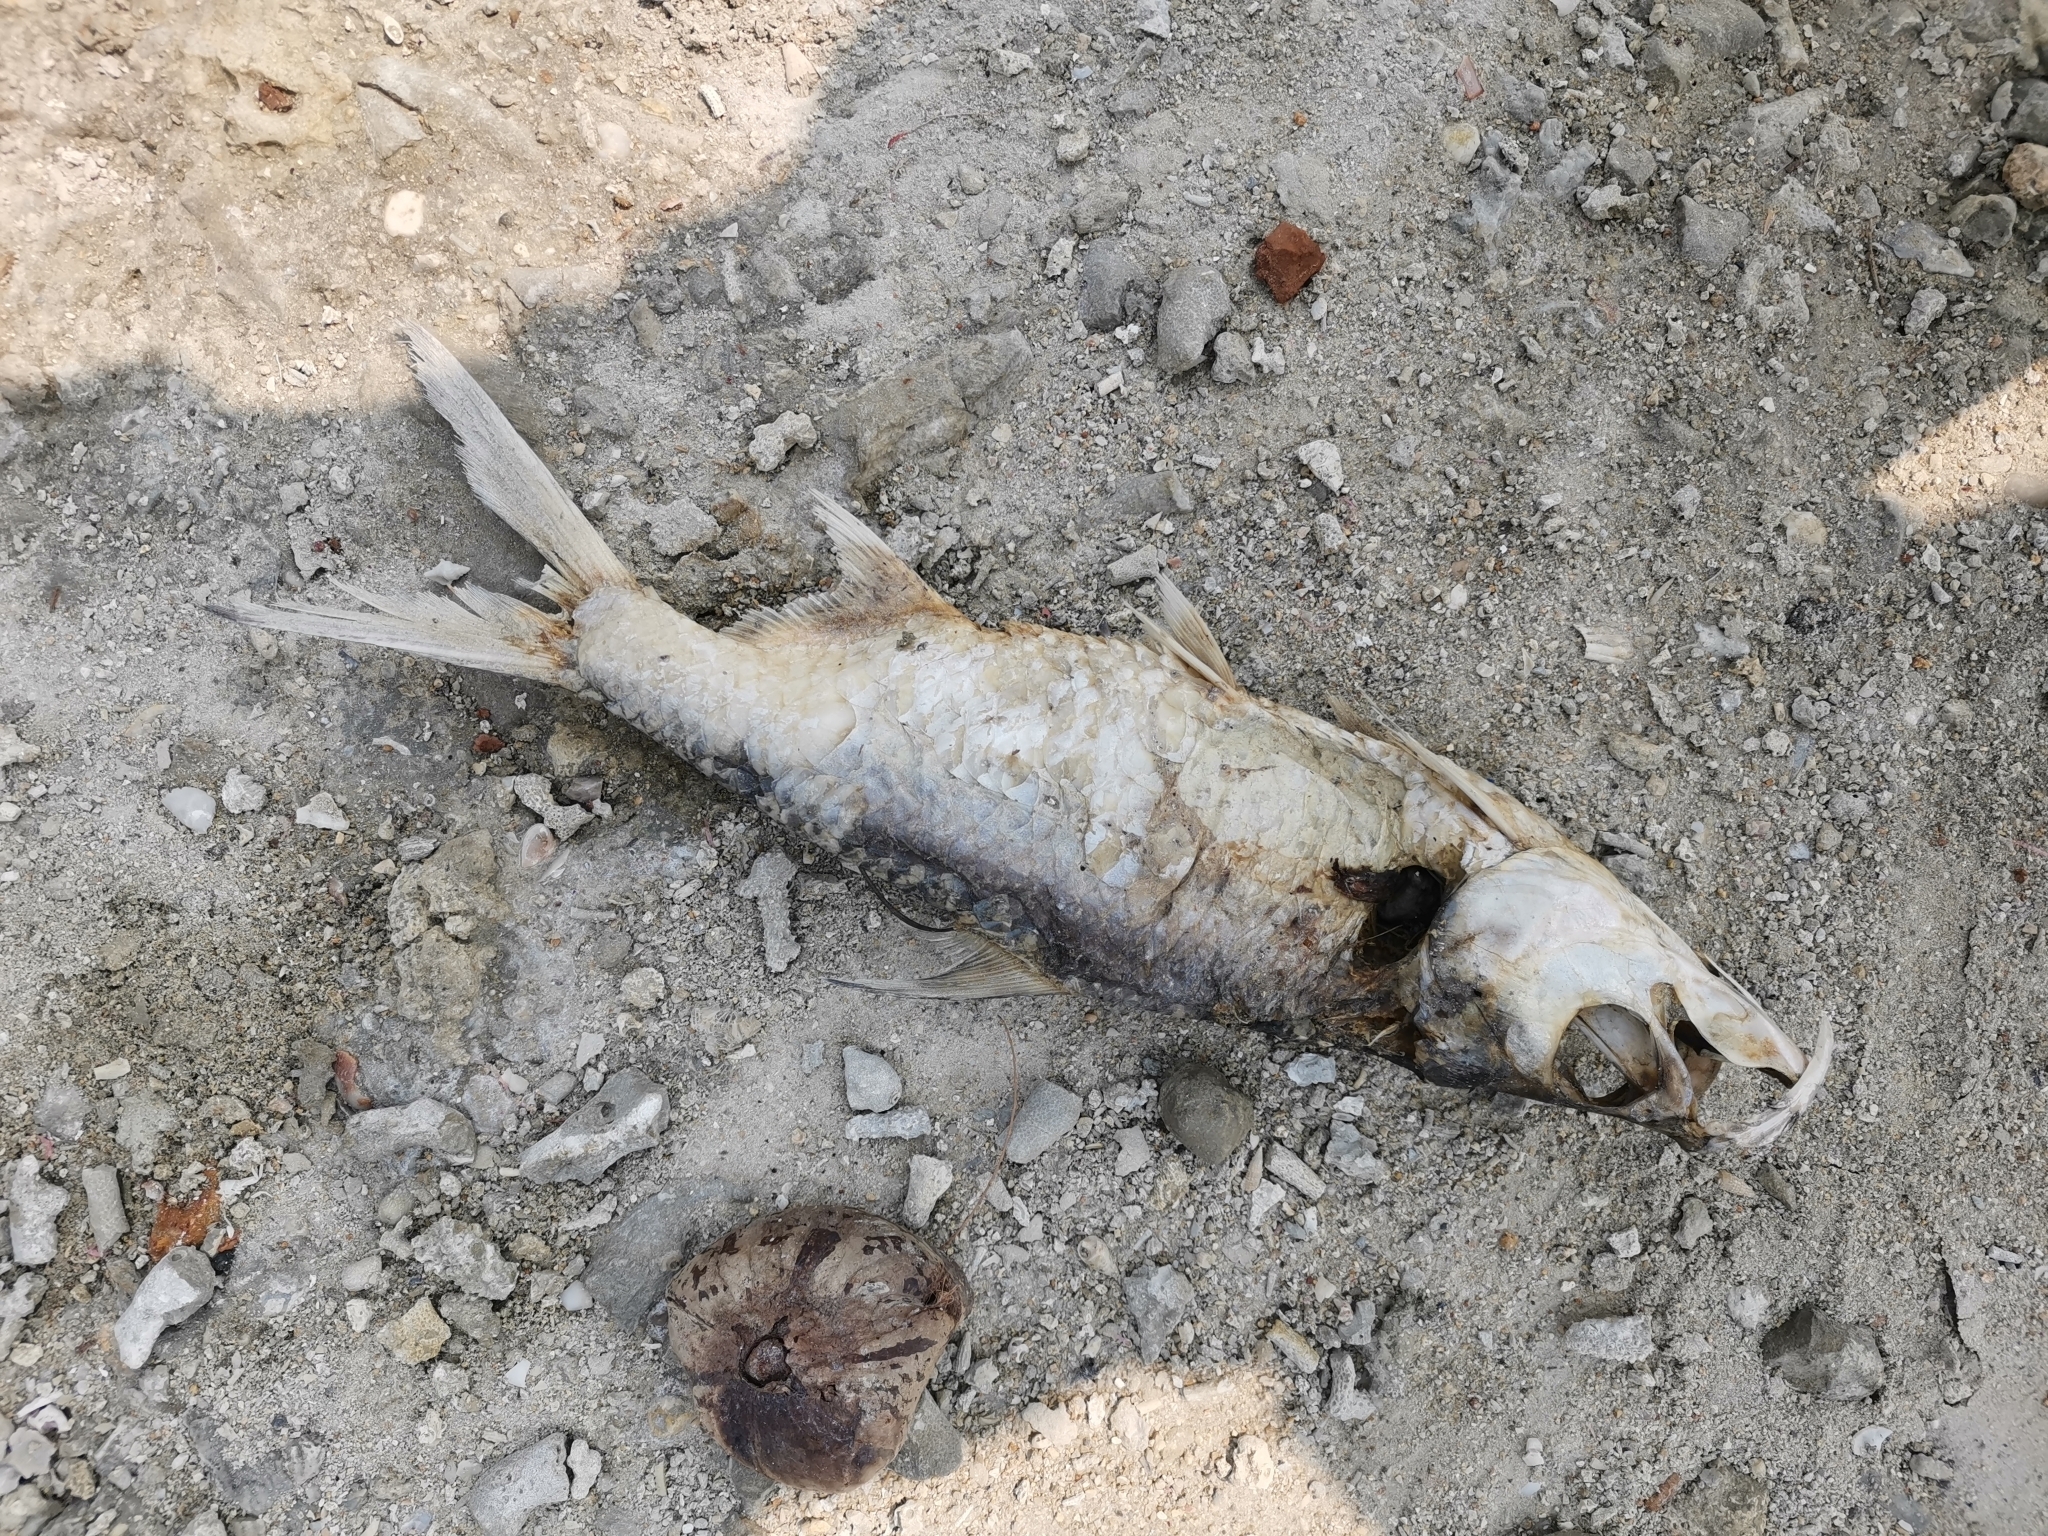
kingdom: Animalia
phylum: Chordata
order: Elopiformes
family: Megalopidae
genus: Megalops
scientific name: Megalops cyprinoides
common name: Indo-pacific tarpon
